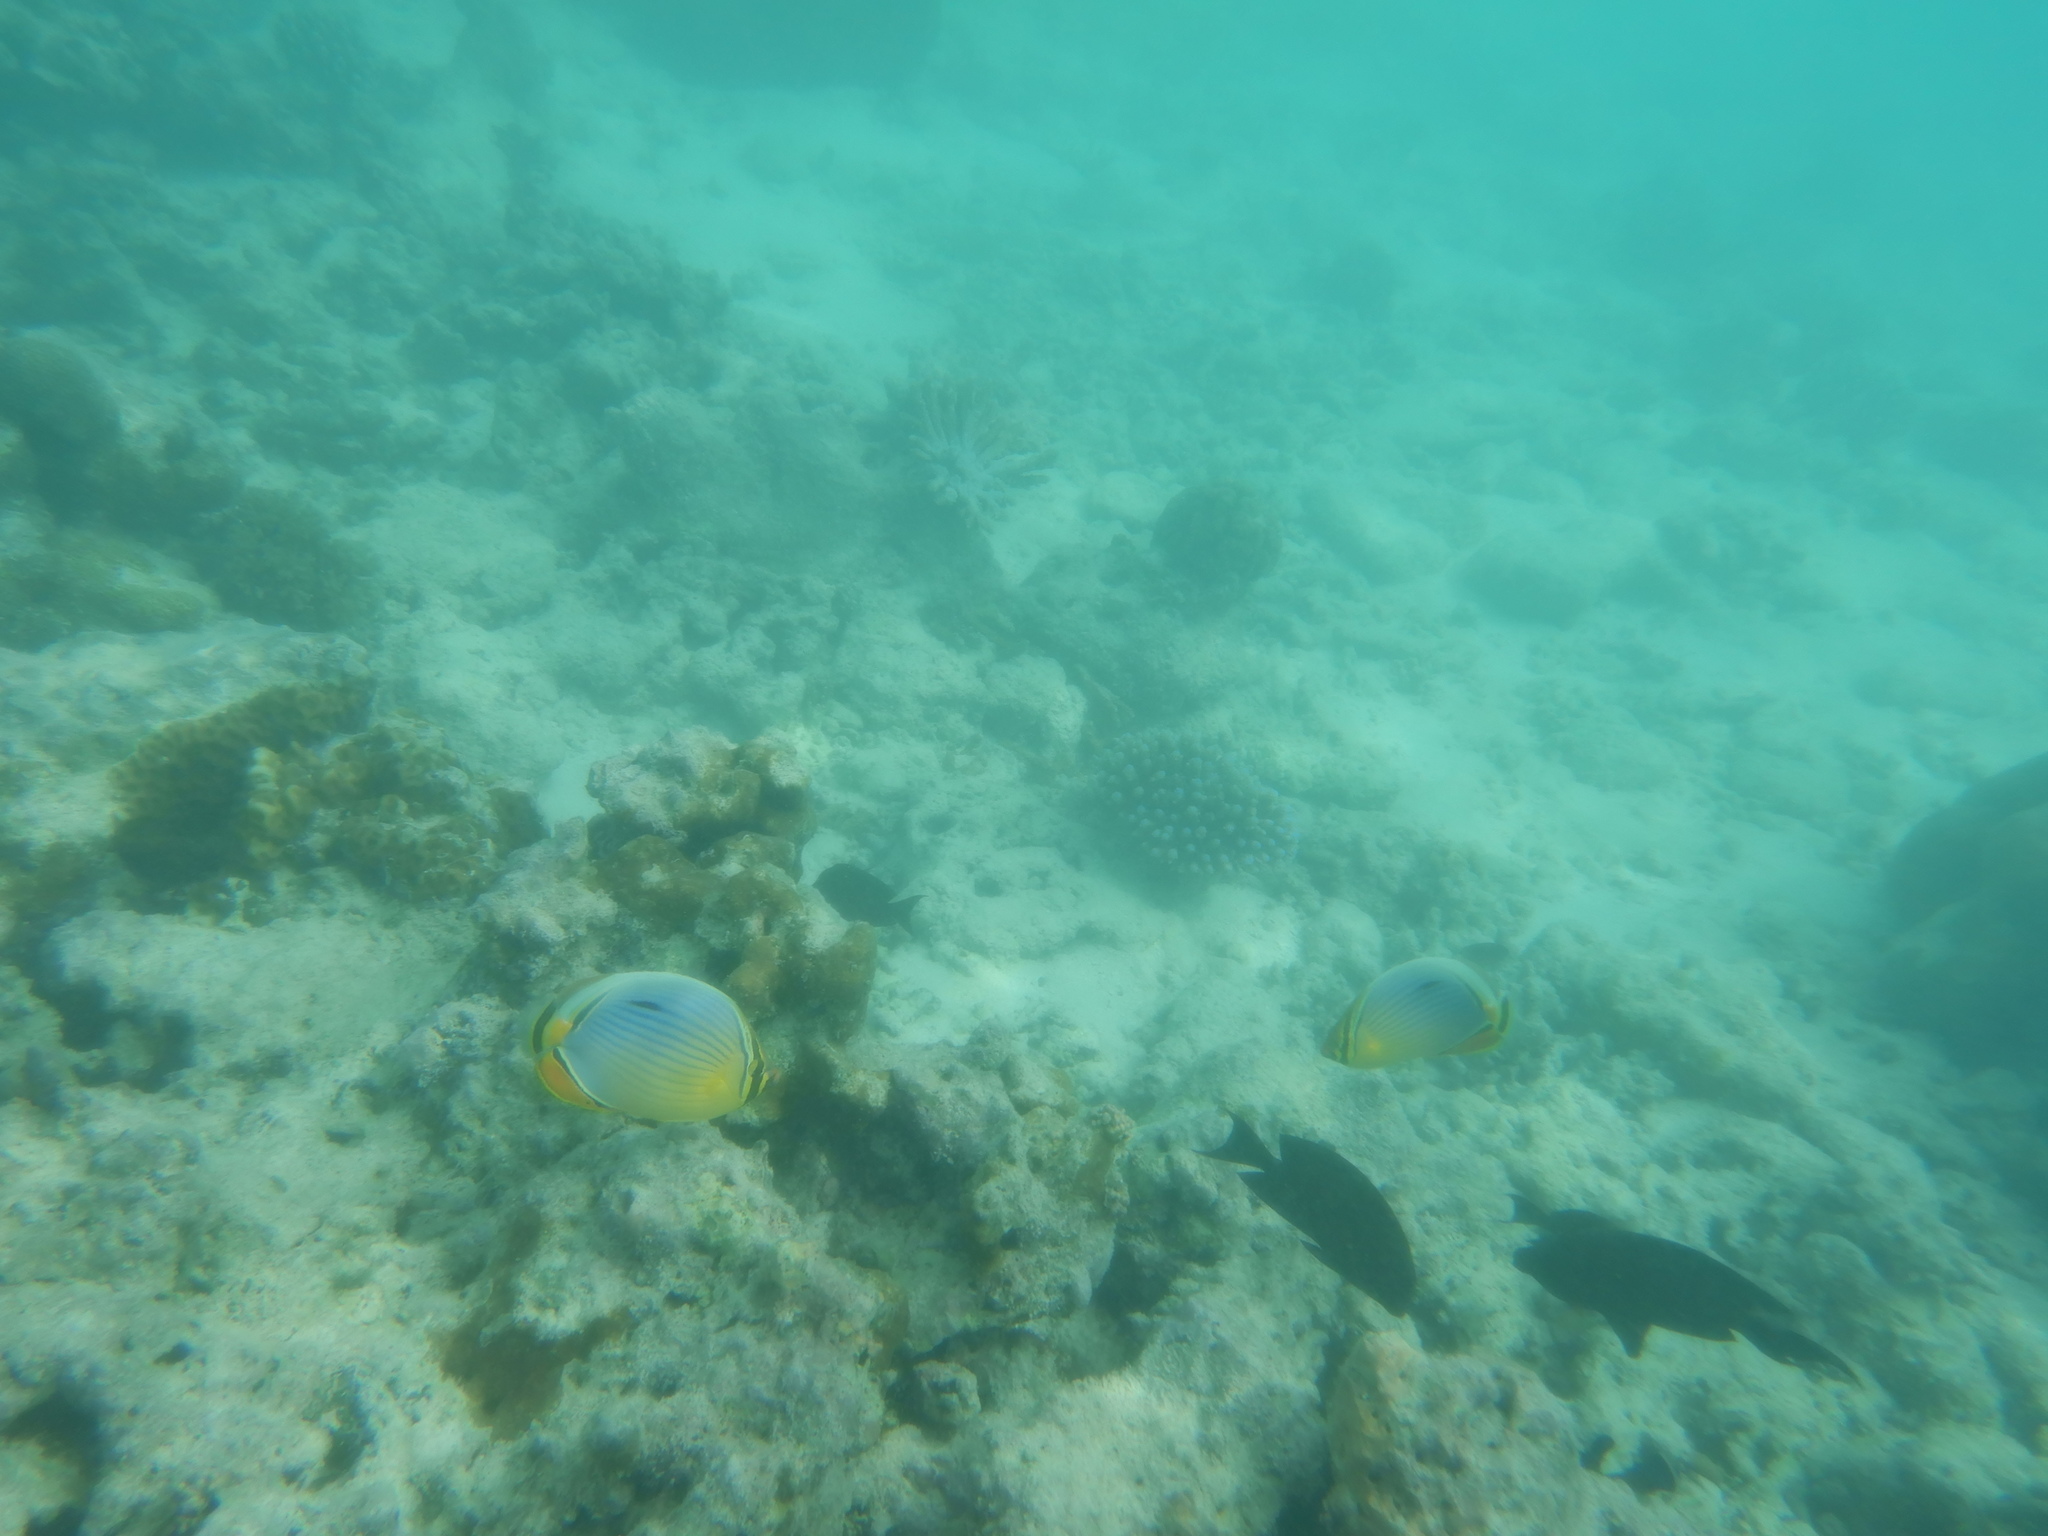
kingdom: Animalia
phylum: Chordata
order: Perciformes
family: Chaetodontidae
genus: Chaetodon
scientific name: Chaetodon trifasciatus
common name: Redfin butterflyfish
